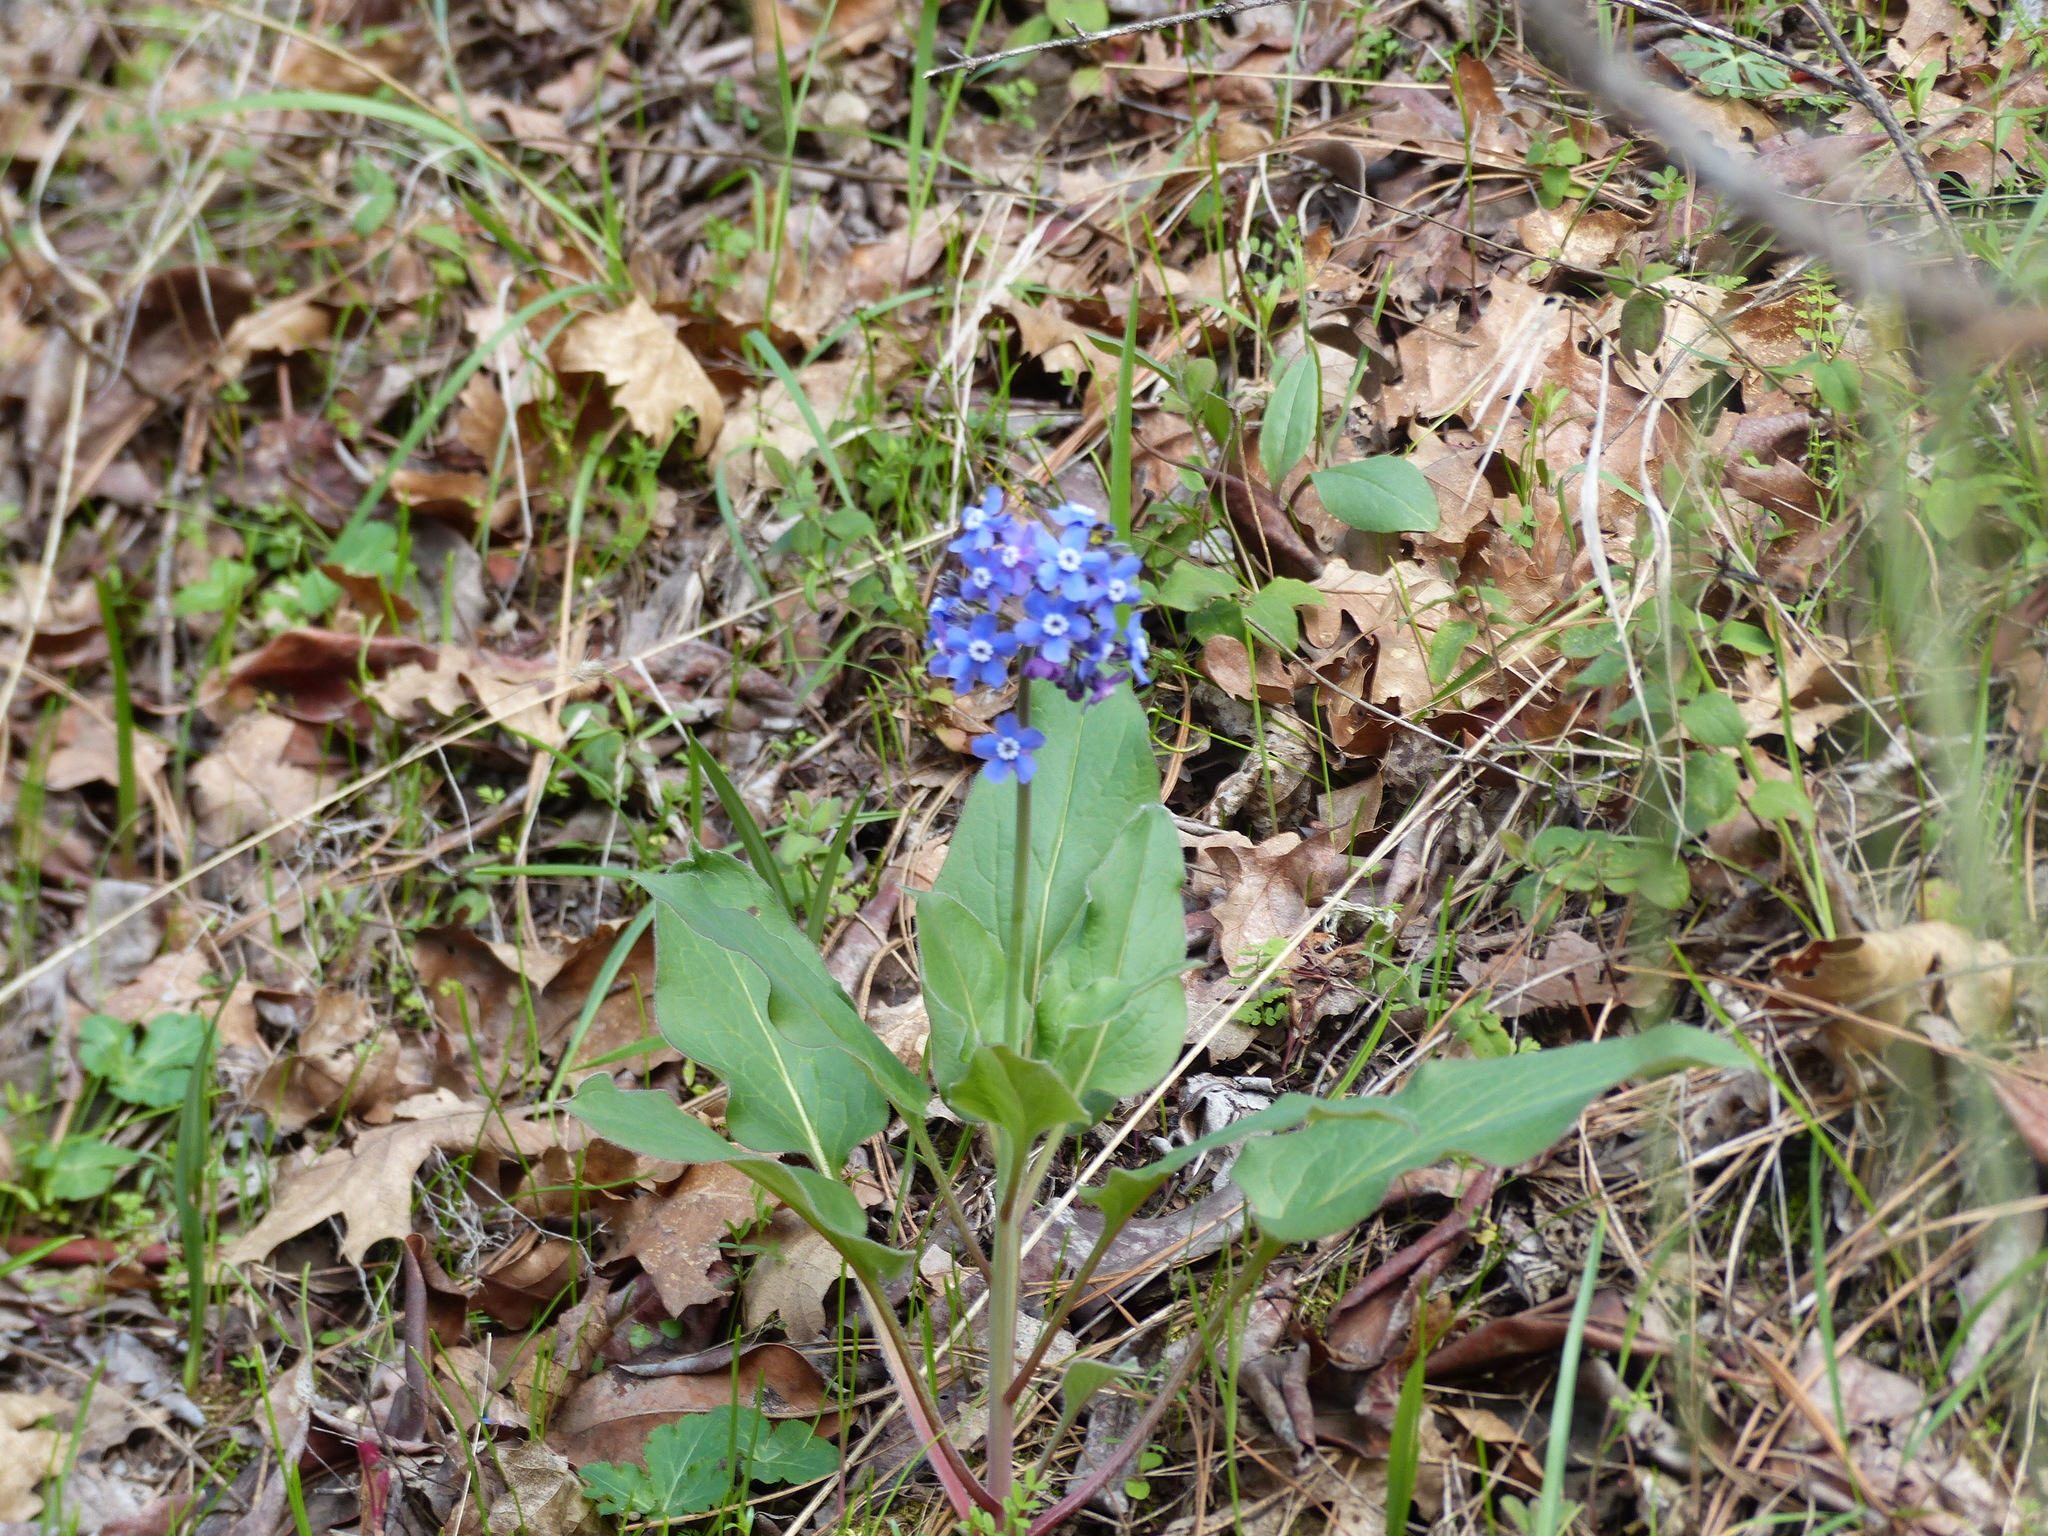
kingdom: Plantae
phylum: Tracheophyta
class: Magnoliopsida
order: Boraginales
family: Boraginaceae
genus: Adelinia
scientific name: Adelinia grande
